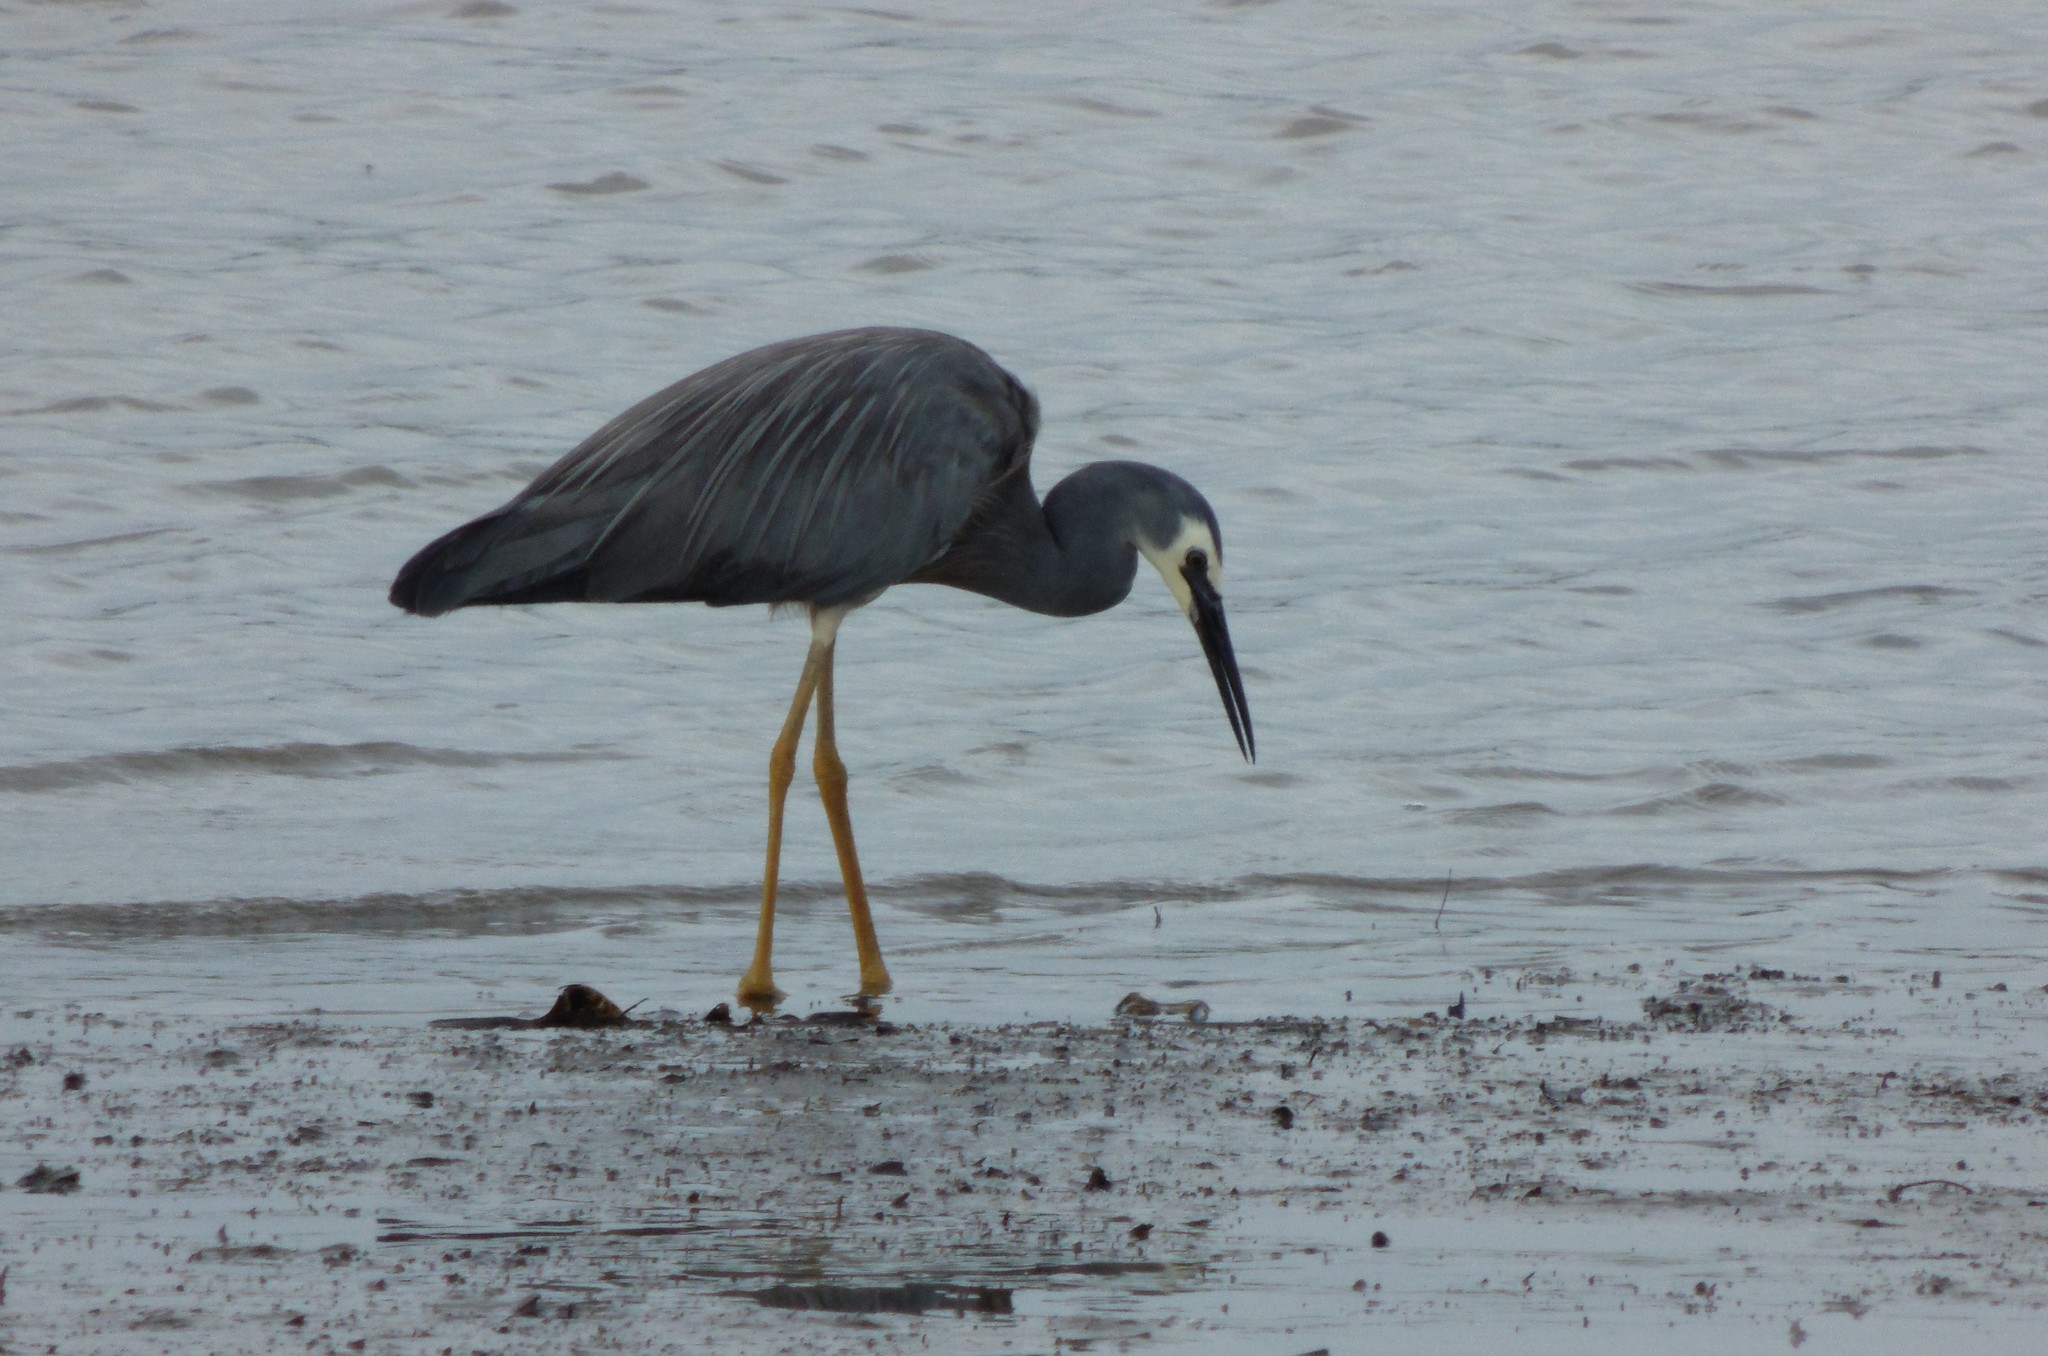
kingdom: Animalia
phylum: Chordata
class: Aves
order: Pelecaniformes
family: Ardeidae
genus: Egretta
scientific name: Egretta novaehollandiae
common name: White-faced heron
